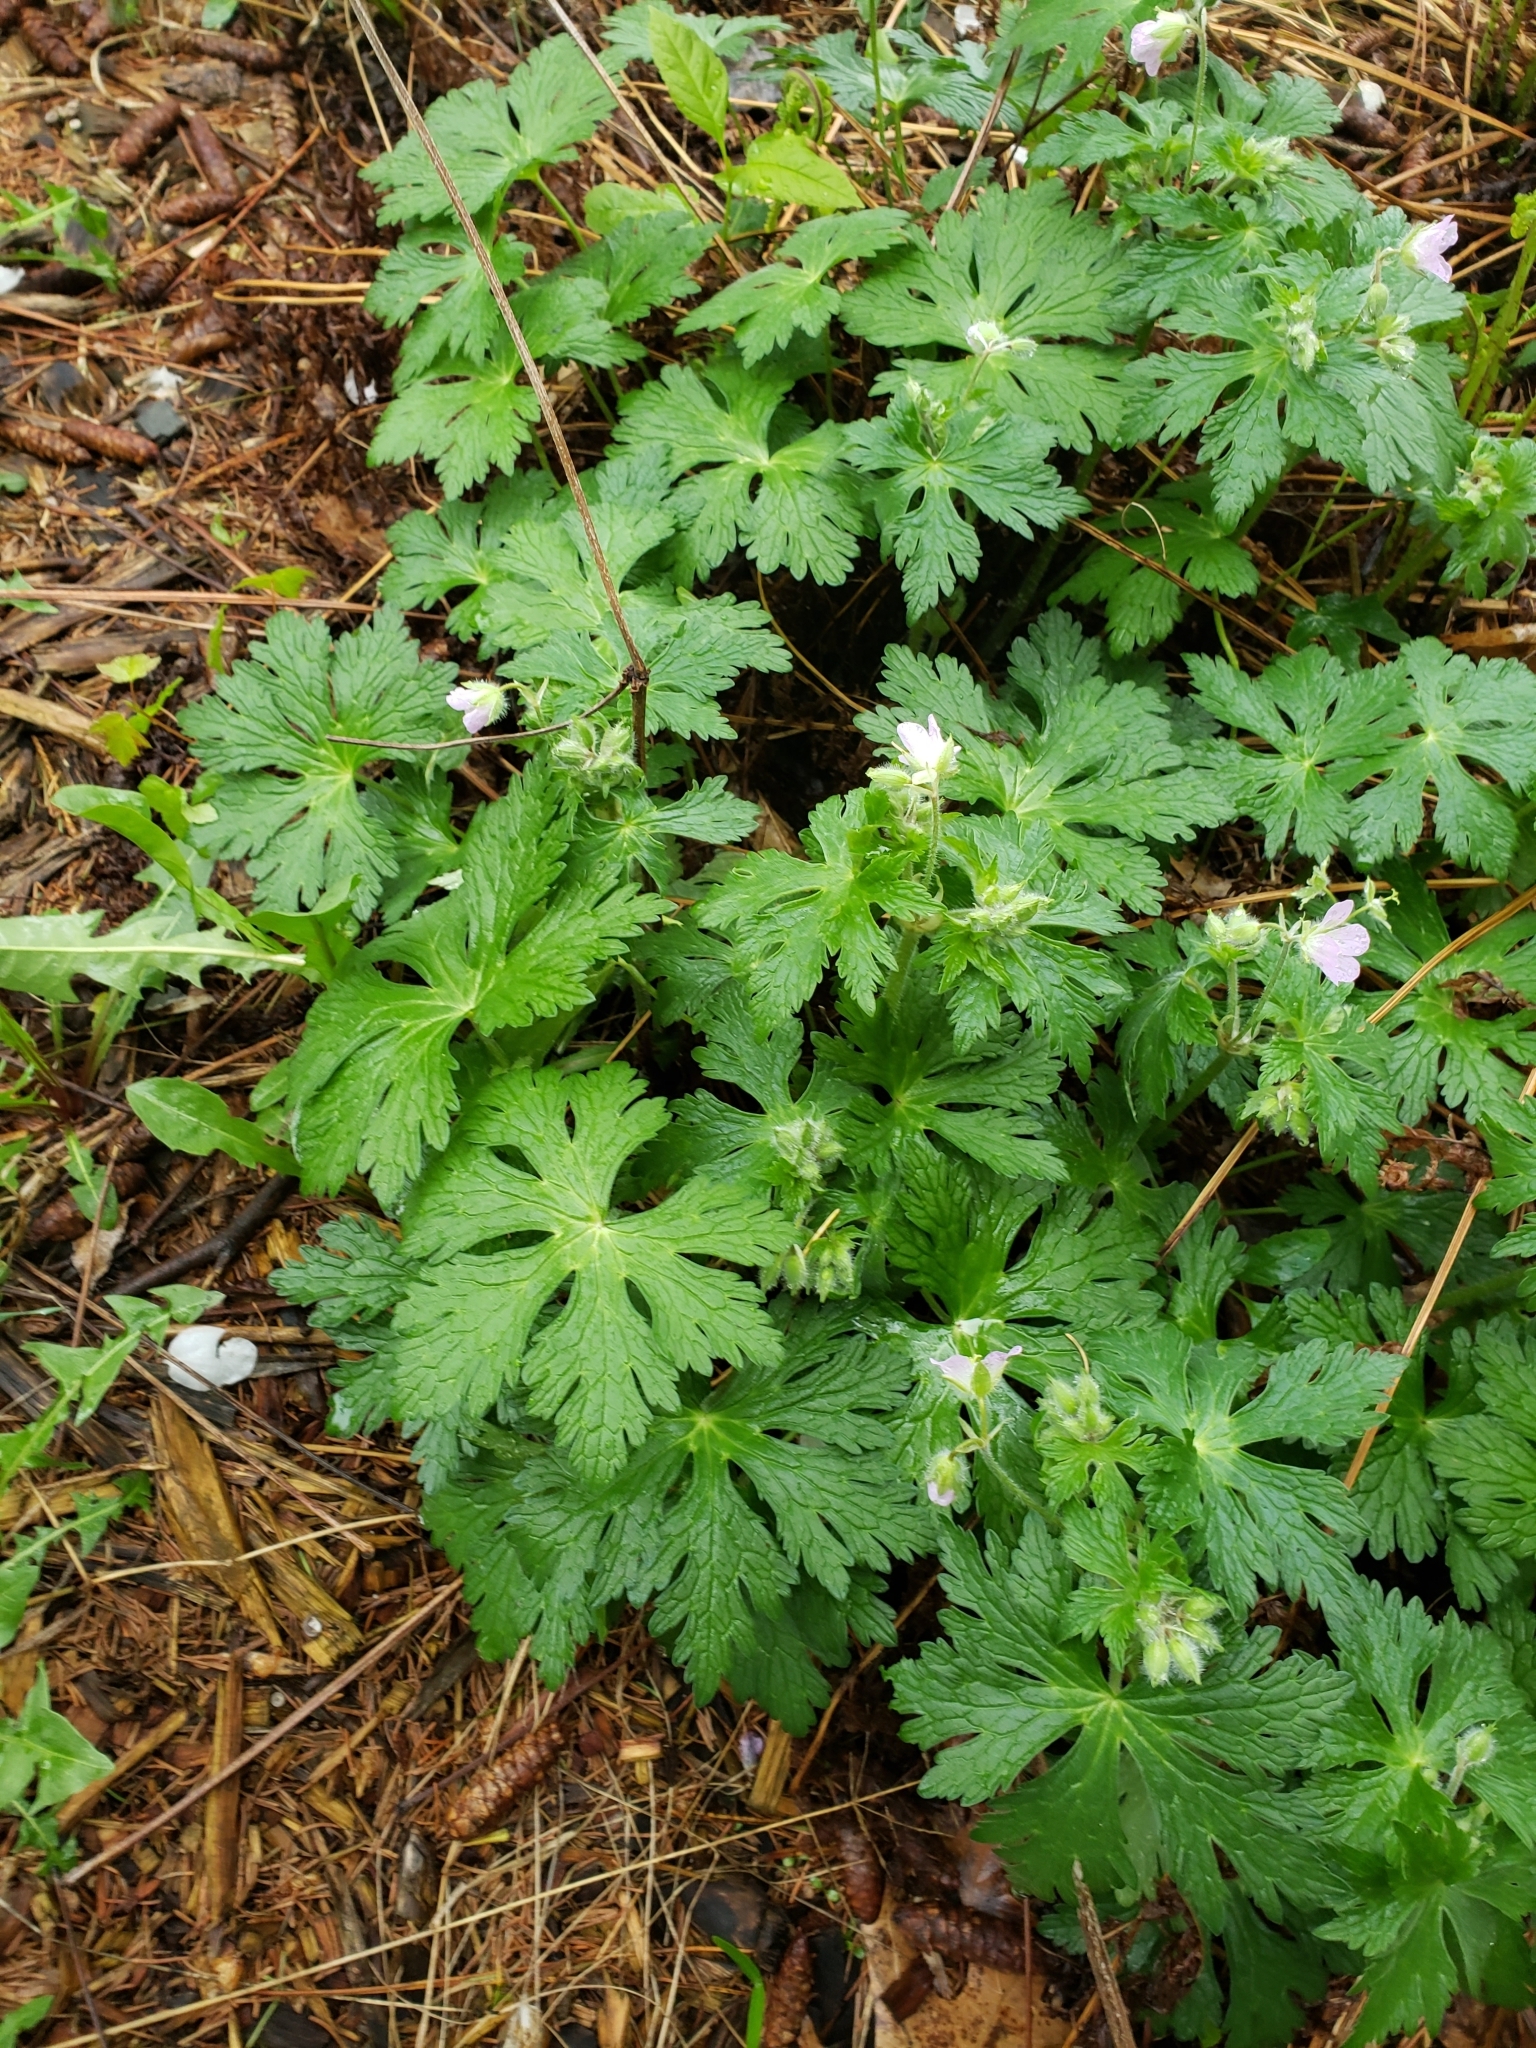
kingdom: Plantae
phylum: Tracheophyta
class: Magnoliopsida
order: Geraniales
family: Geraniaceae
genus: Geranium
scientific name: Geranium maculatum
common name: Spotted geranium
